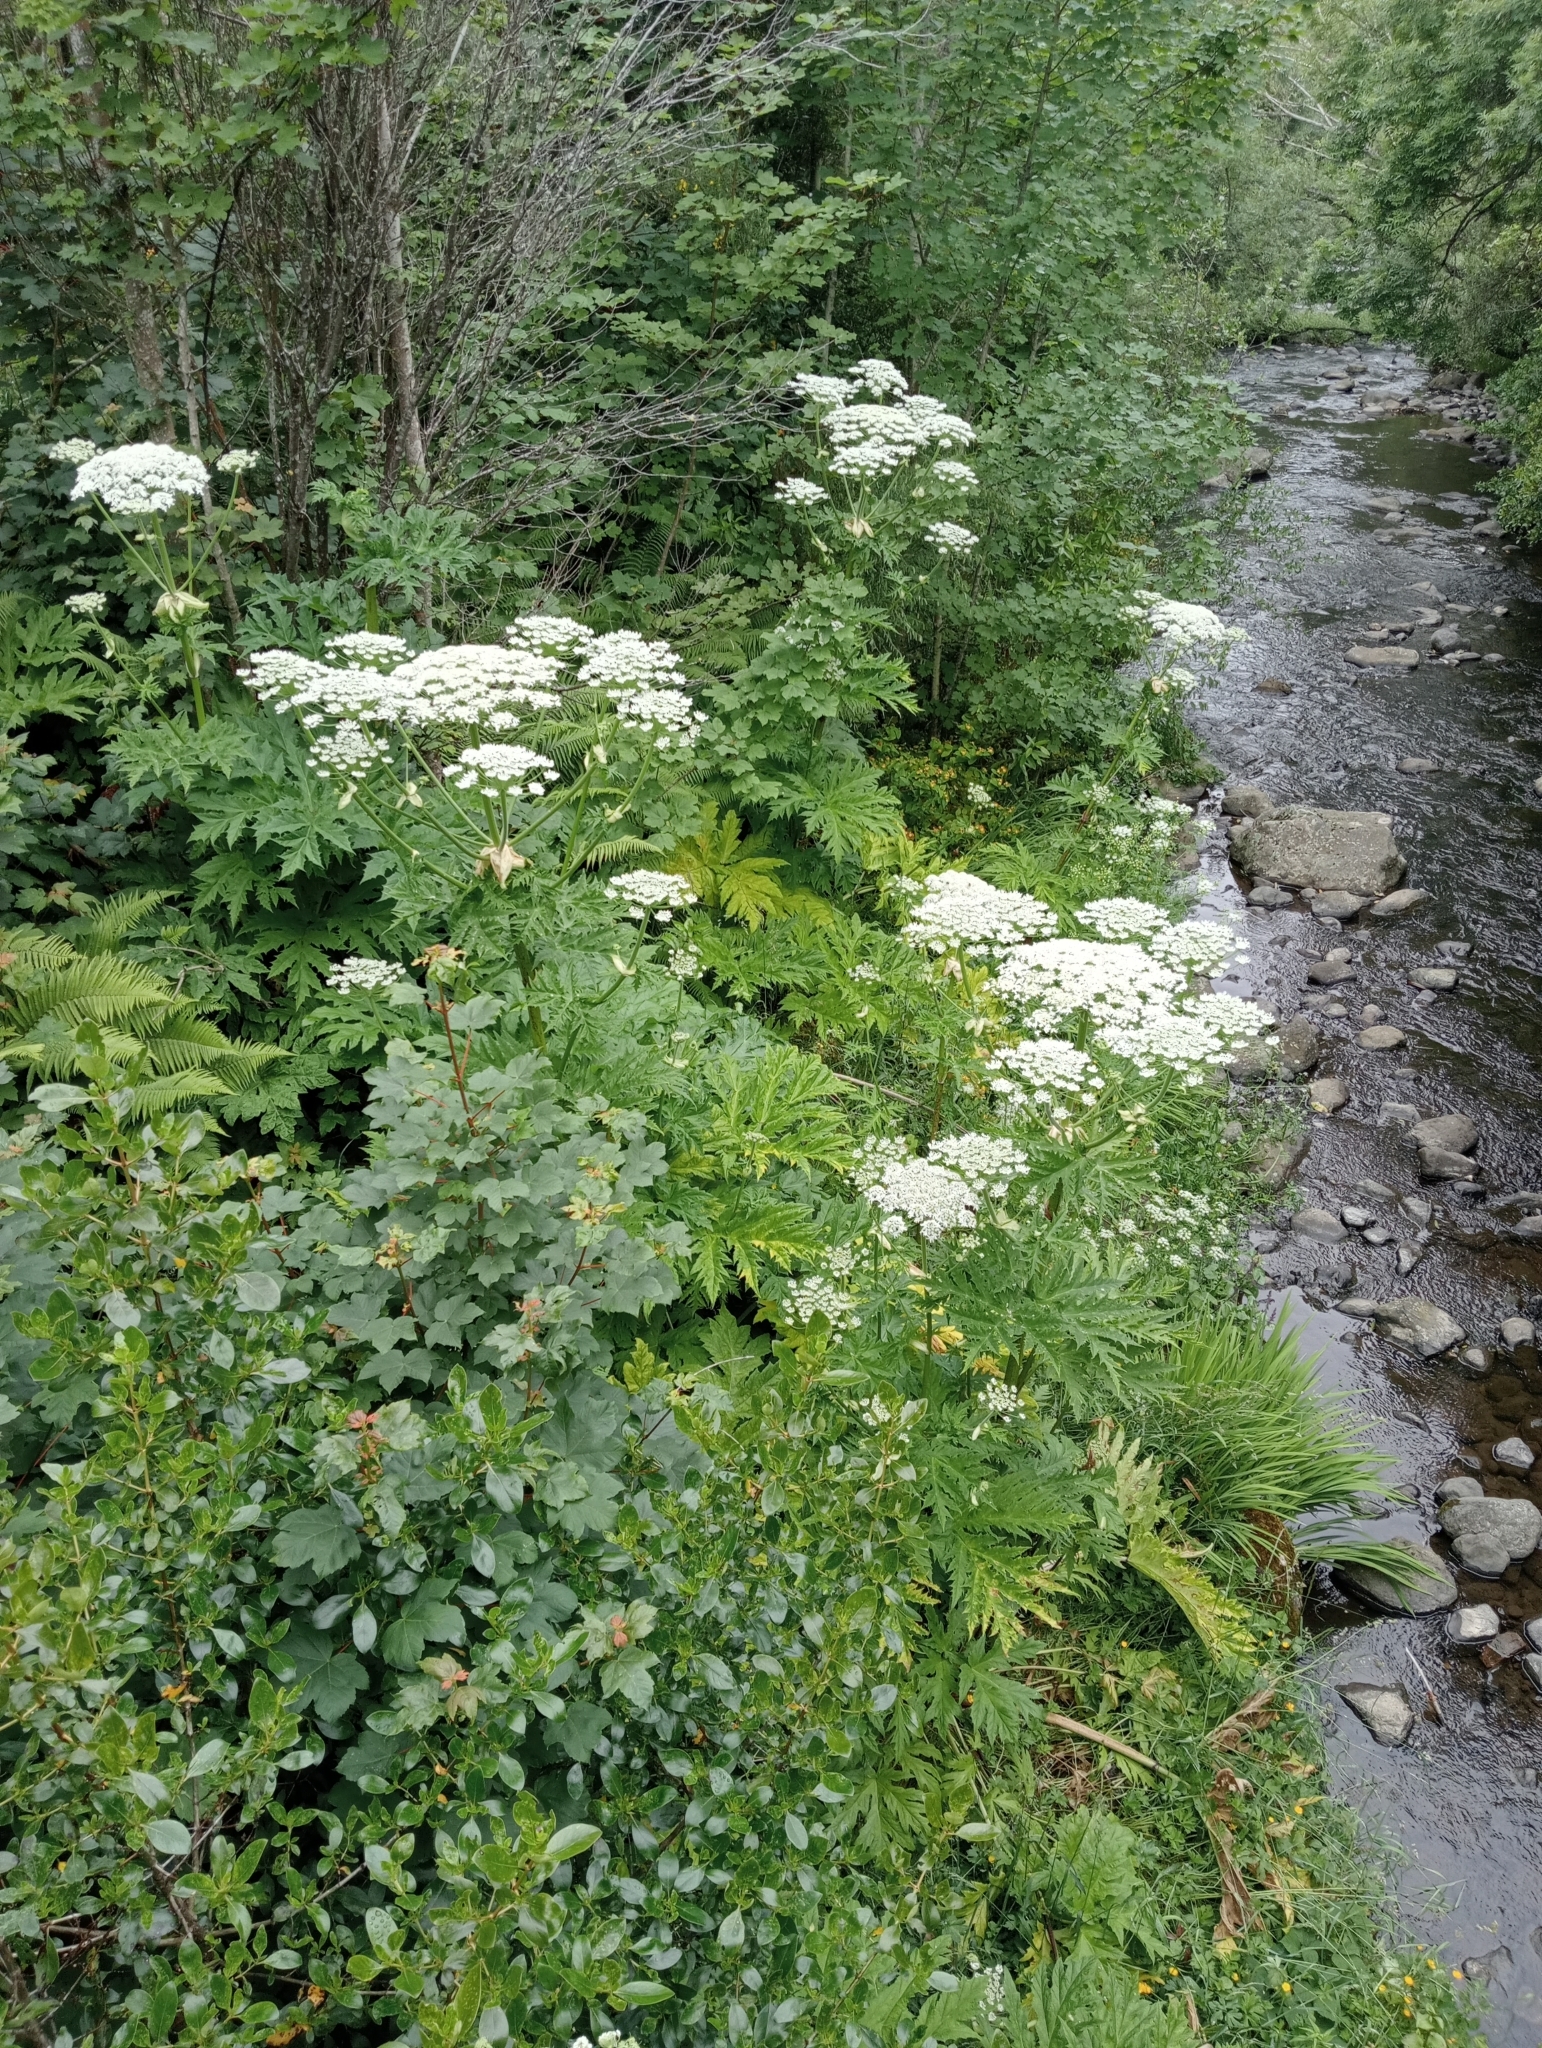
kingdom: Plantae
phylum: Tracheophyta
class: Magnoliopsida
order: Apiales
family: Apiaceae
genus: Heracleum
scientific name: Heracleum mantegazzianum
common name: Giant hogweed
